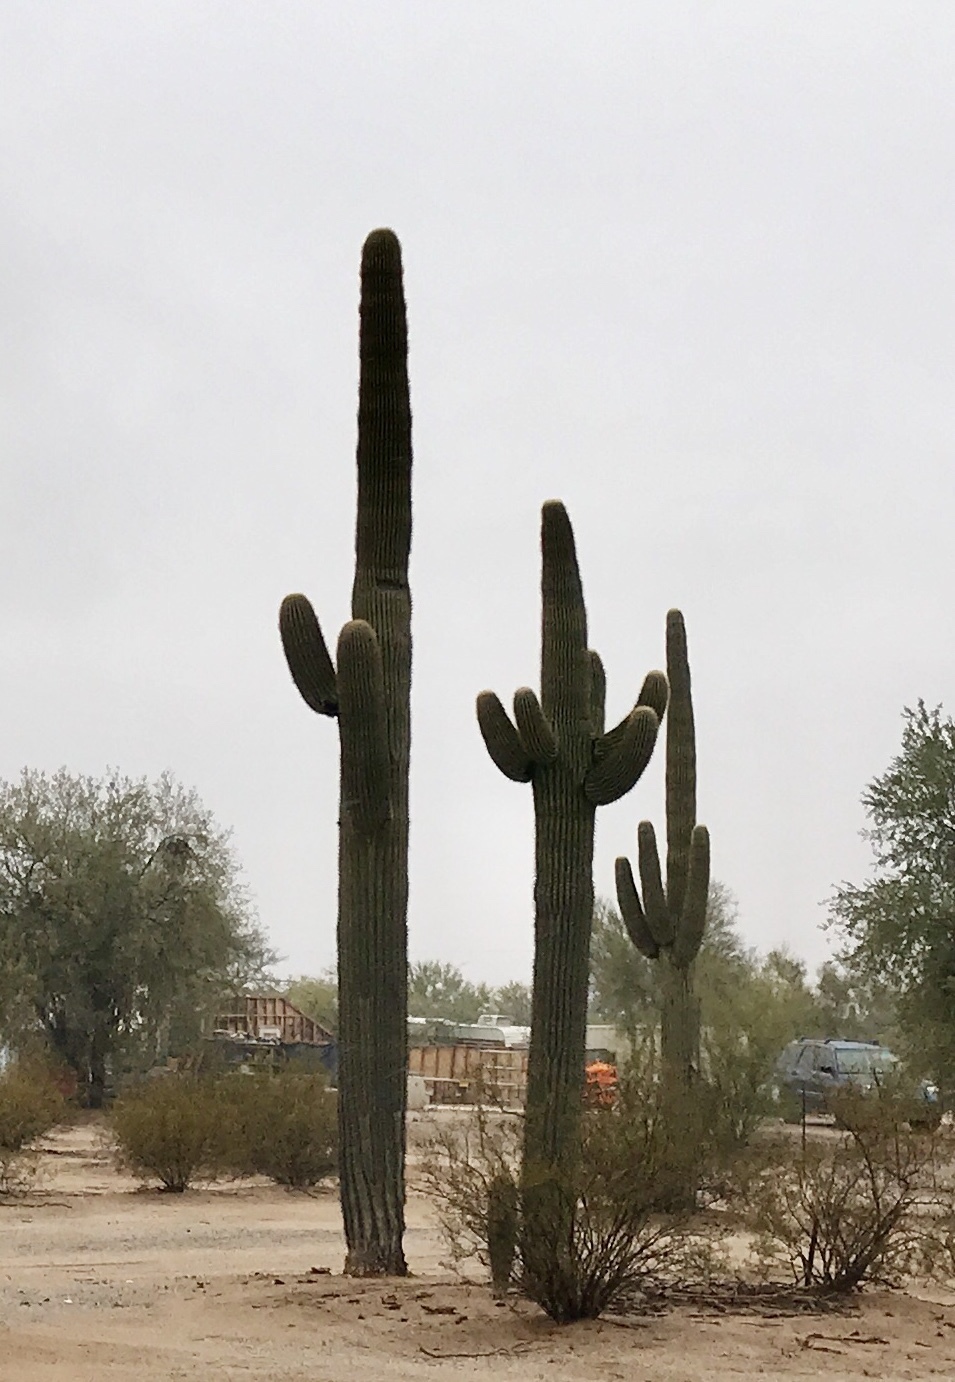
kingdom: Plantae
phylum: Tracheophyta
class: Magnoliopsida
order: Caryophyllales
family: Cactaceae
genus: Carnegiea
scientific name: Carnegiea gigantea
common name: Saguaro
